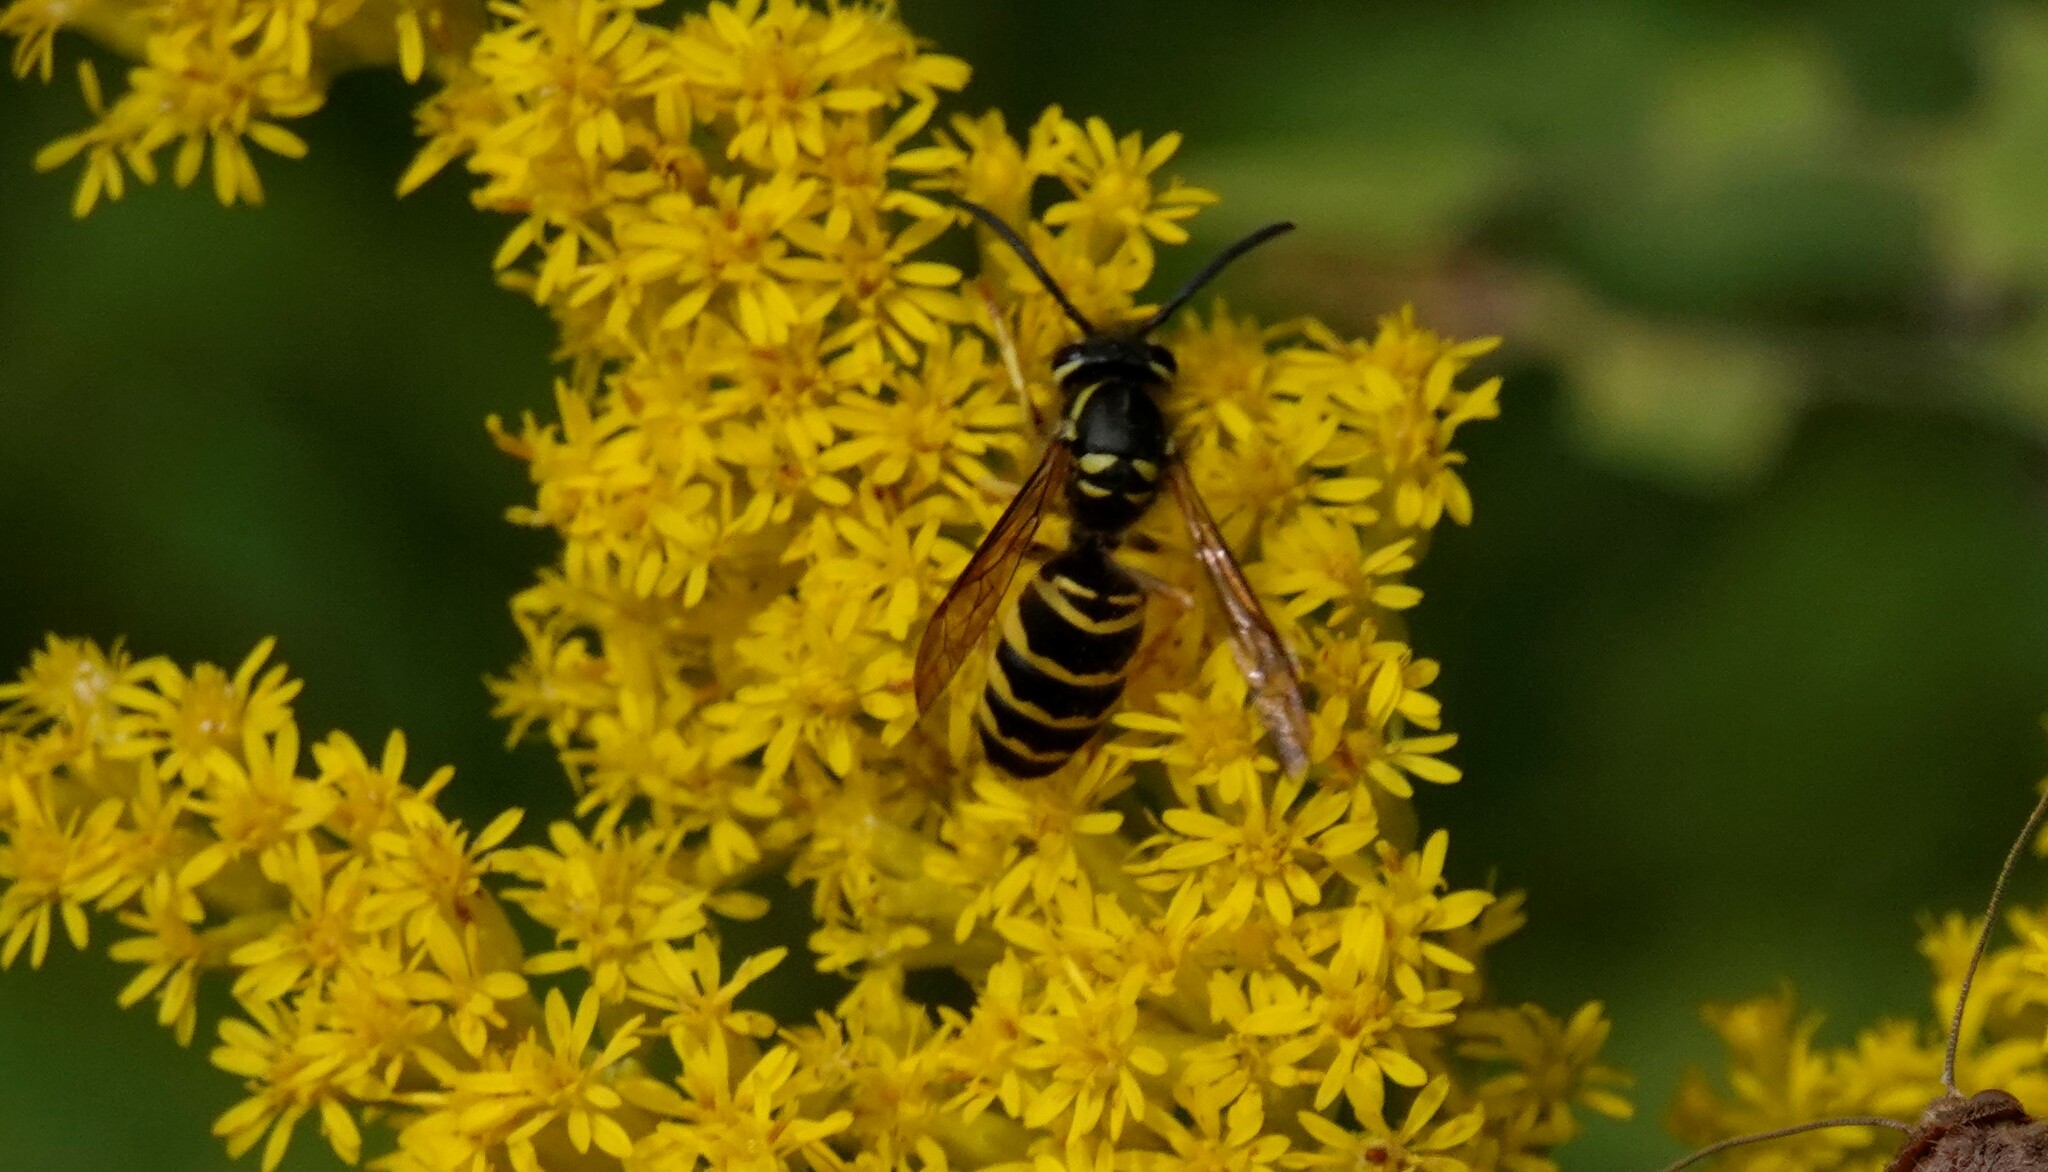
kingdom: Animalia
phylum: Arthropoda
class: Insecta
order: Hymenoptera
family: Vespidae
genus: Vespula
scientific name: Vespula maculifrons
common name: Eastern yellowjacket
